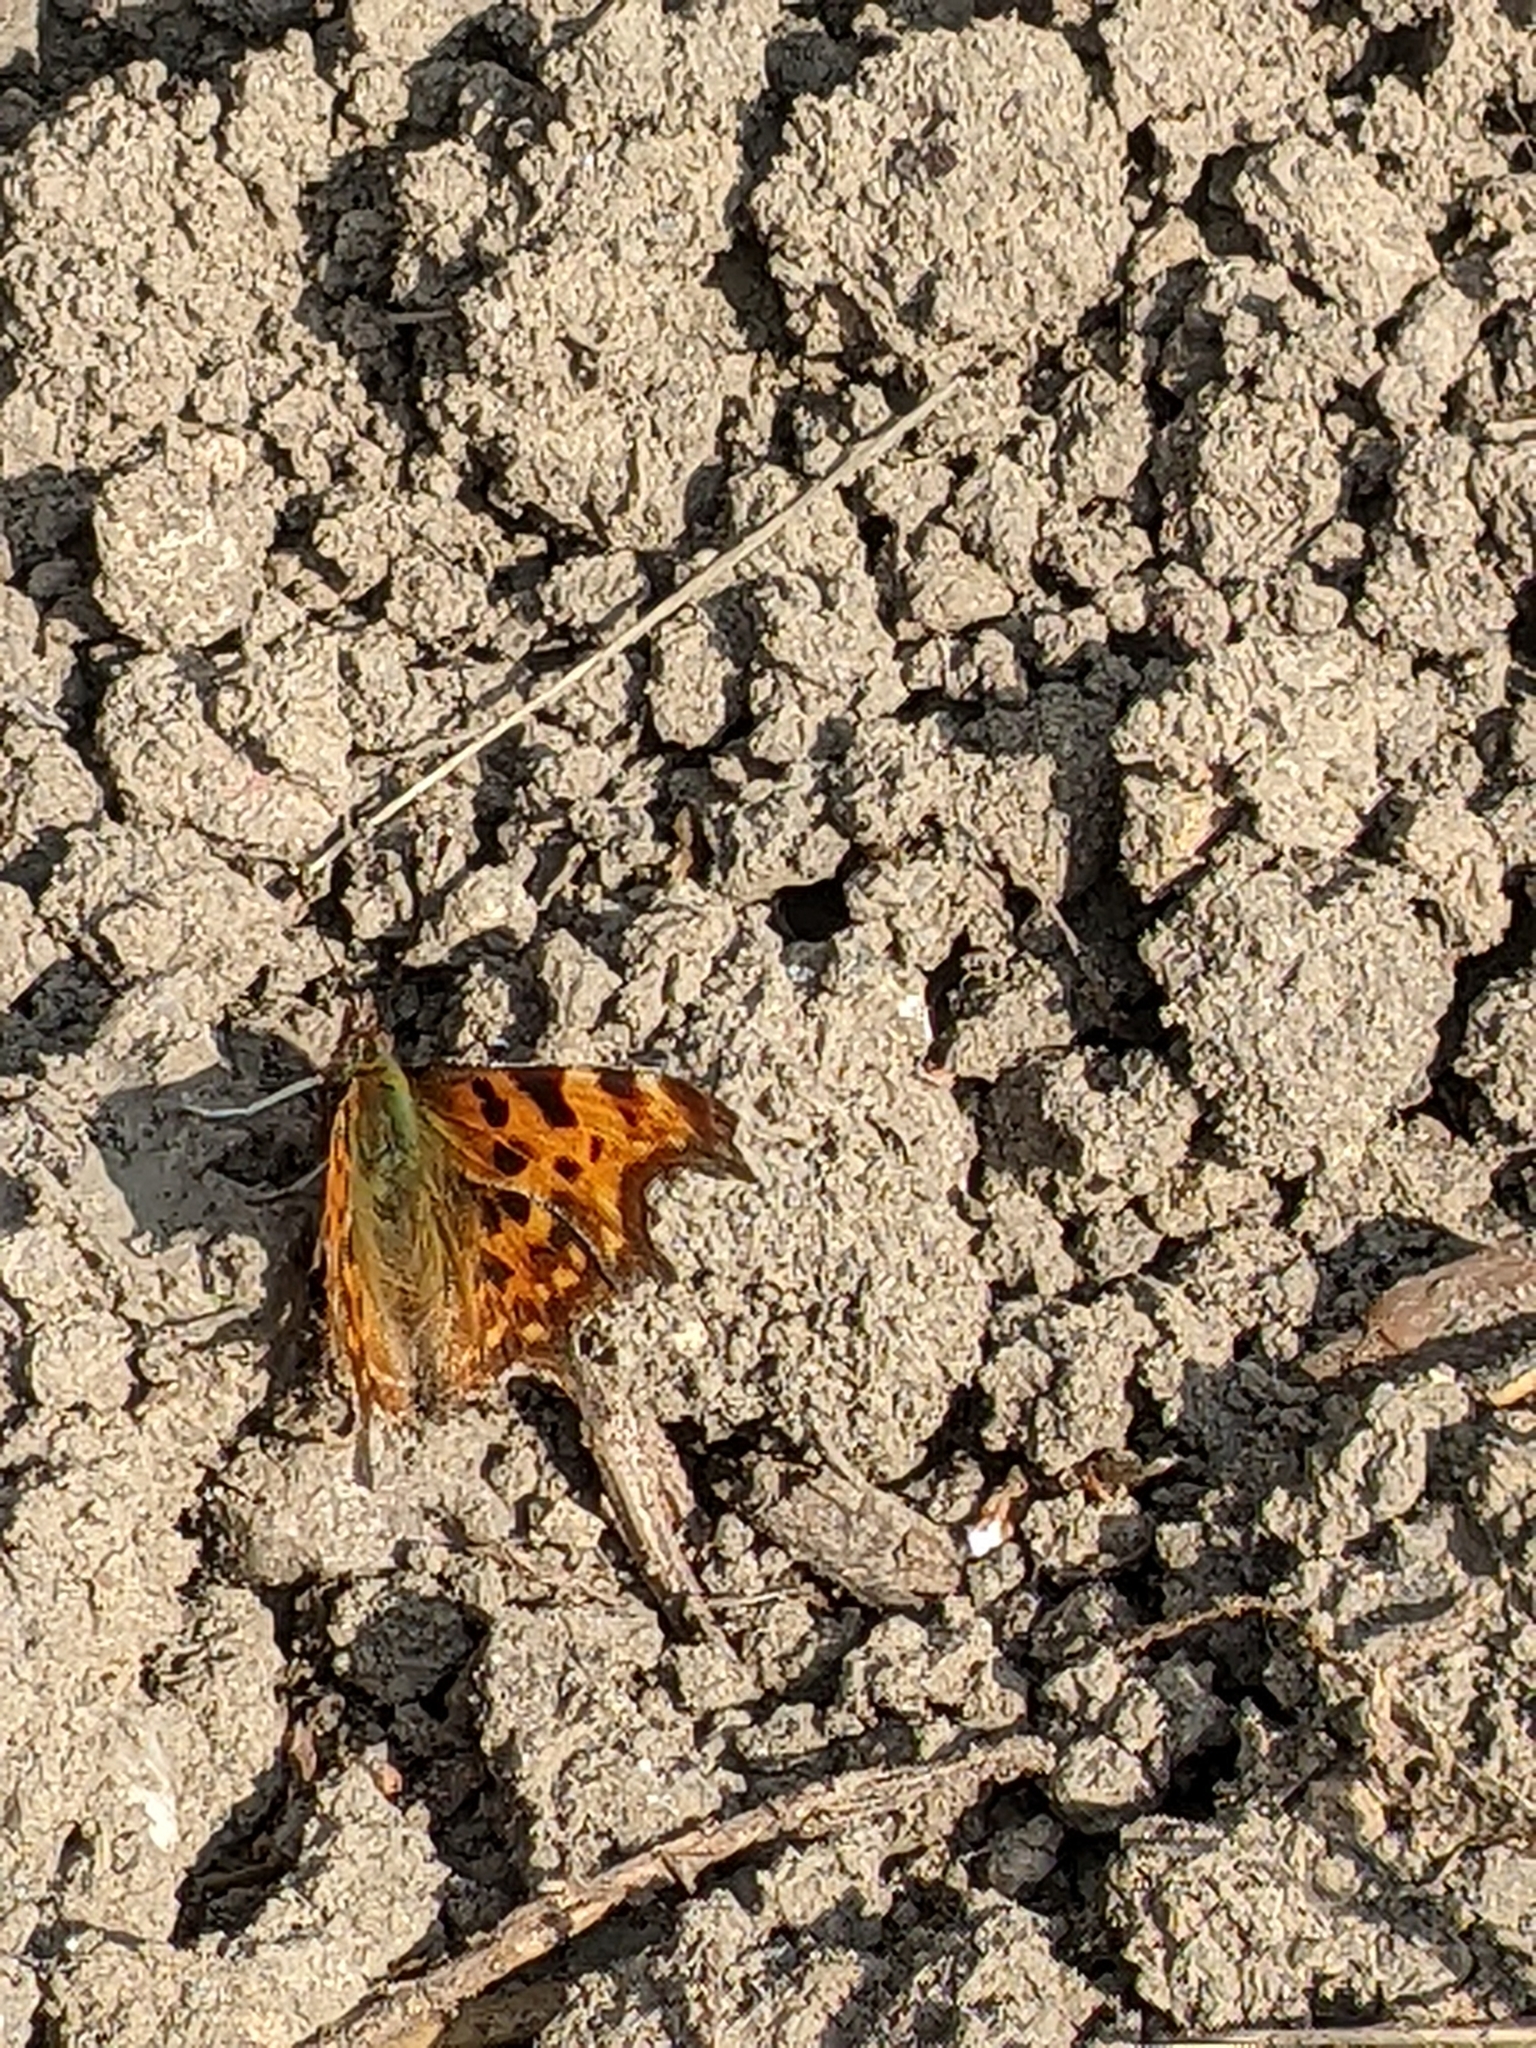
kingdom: Animalia
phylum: Arthropoda
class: Insecta
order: Lepidoptera
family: Nymphalidae
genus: Polygonia
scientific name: Polygonia c-album
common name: Comma
